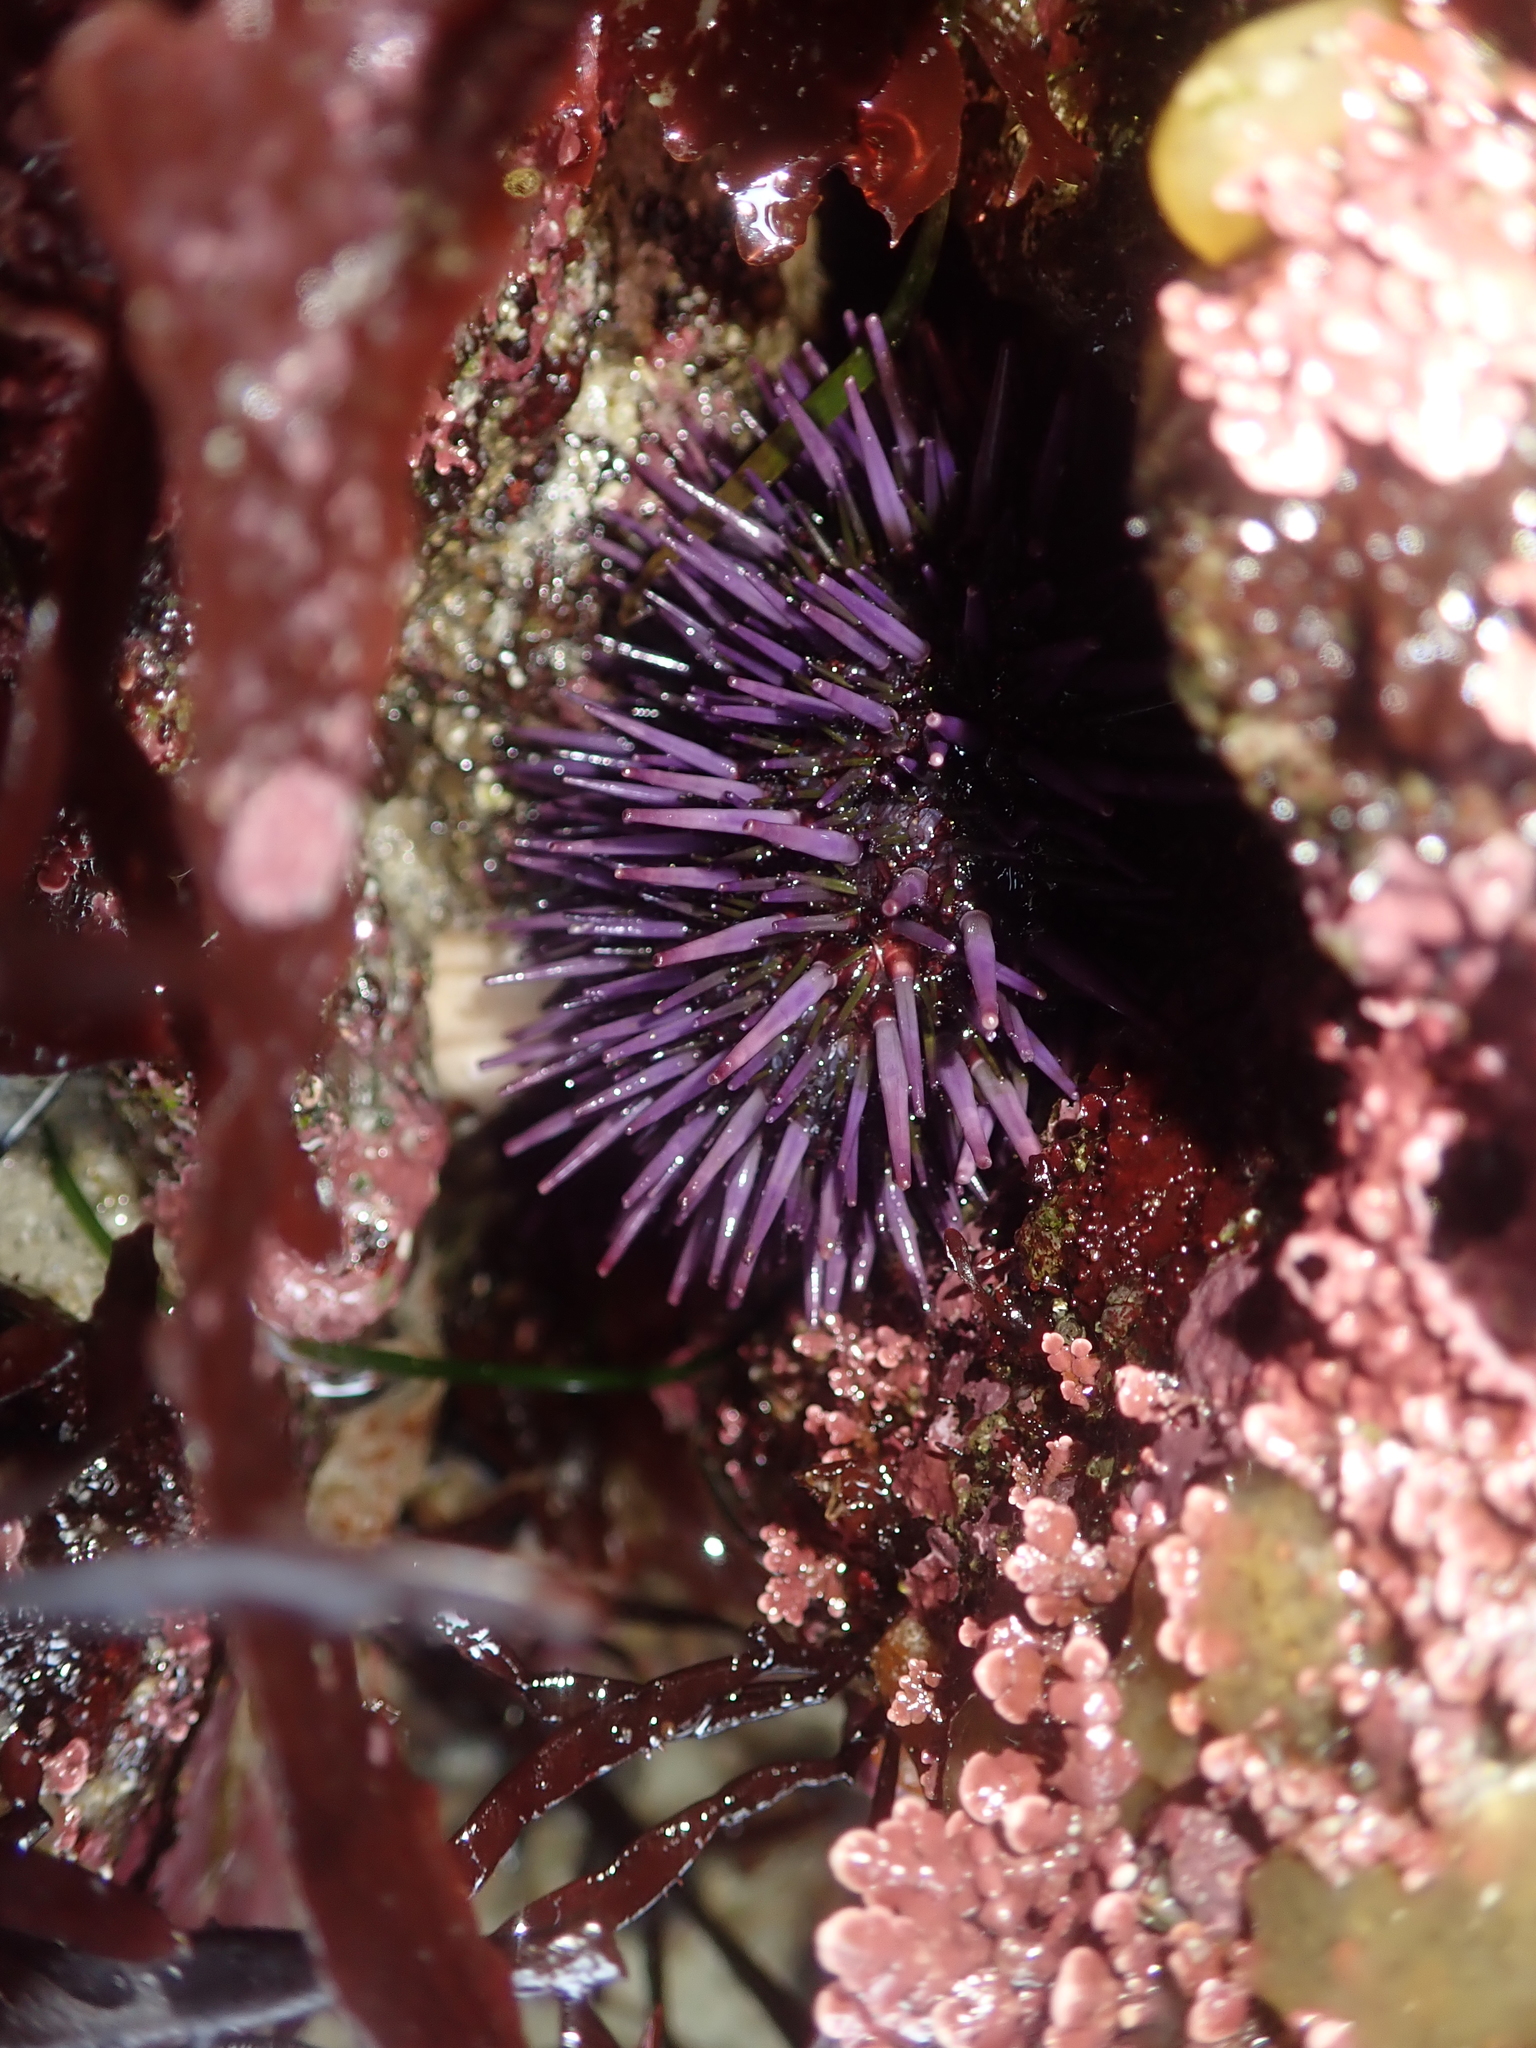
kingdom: Animalia
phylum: Echinodermata
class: Echinoidea
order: Camarodonta
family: Strongylocentrotidae
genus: Strongylocentrotus
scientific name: Strongylocentrotus purpuratus
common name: Purple sea urchin
